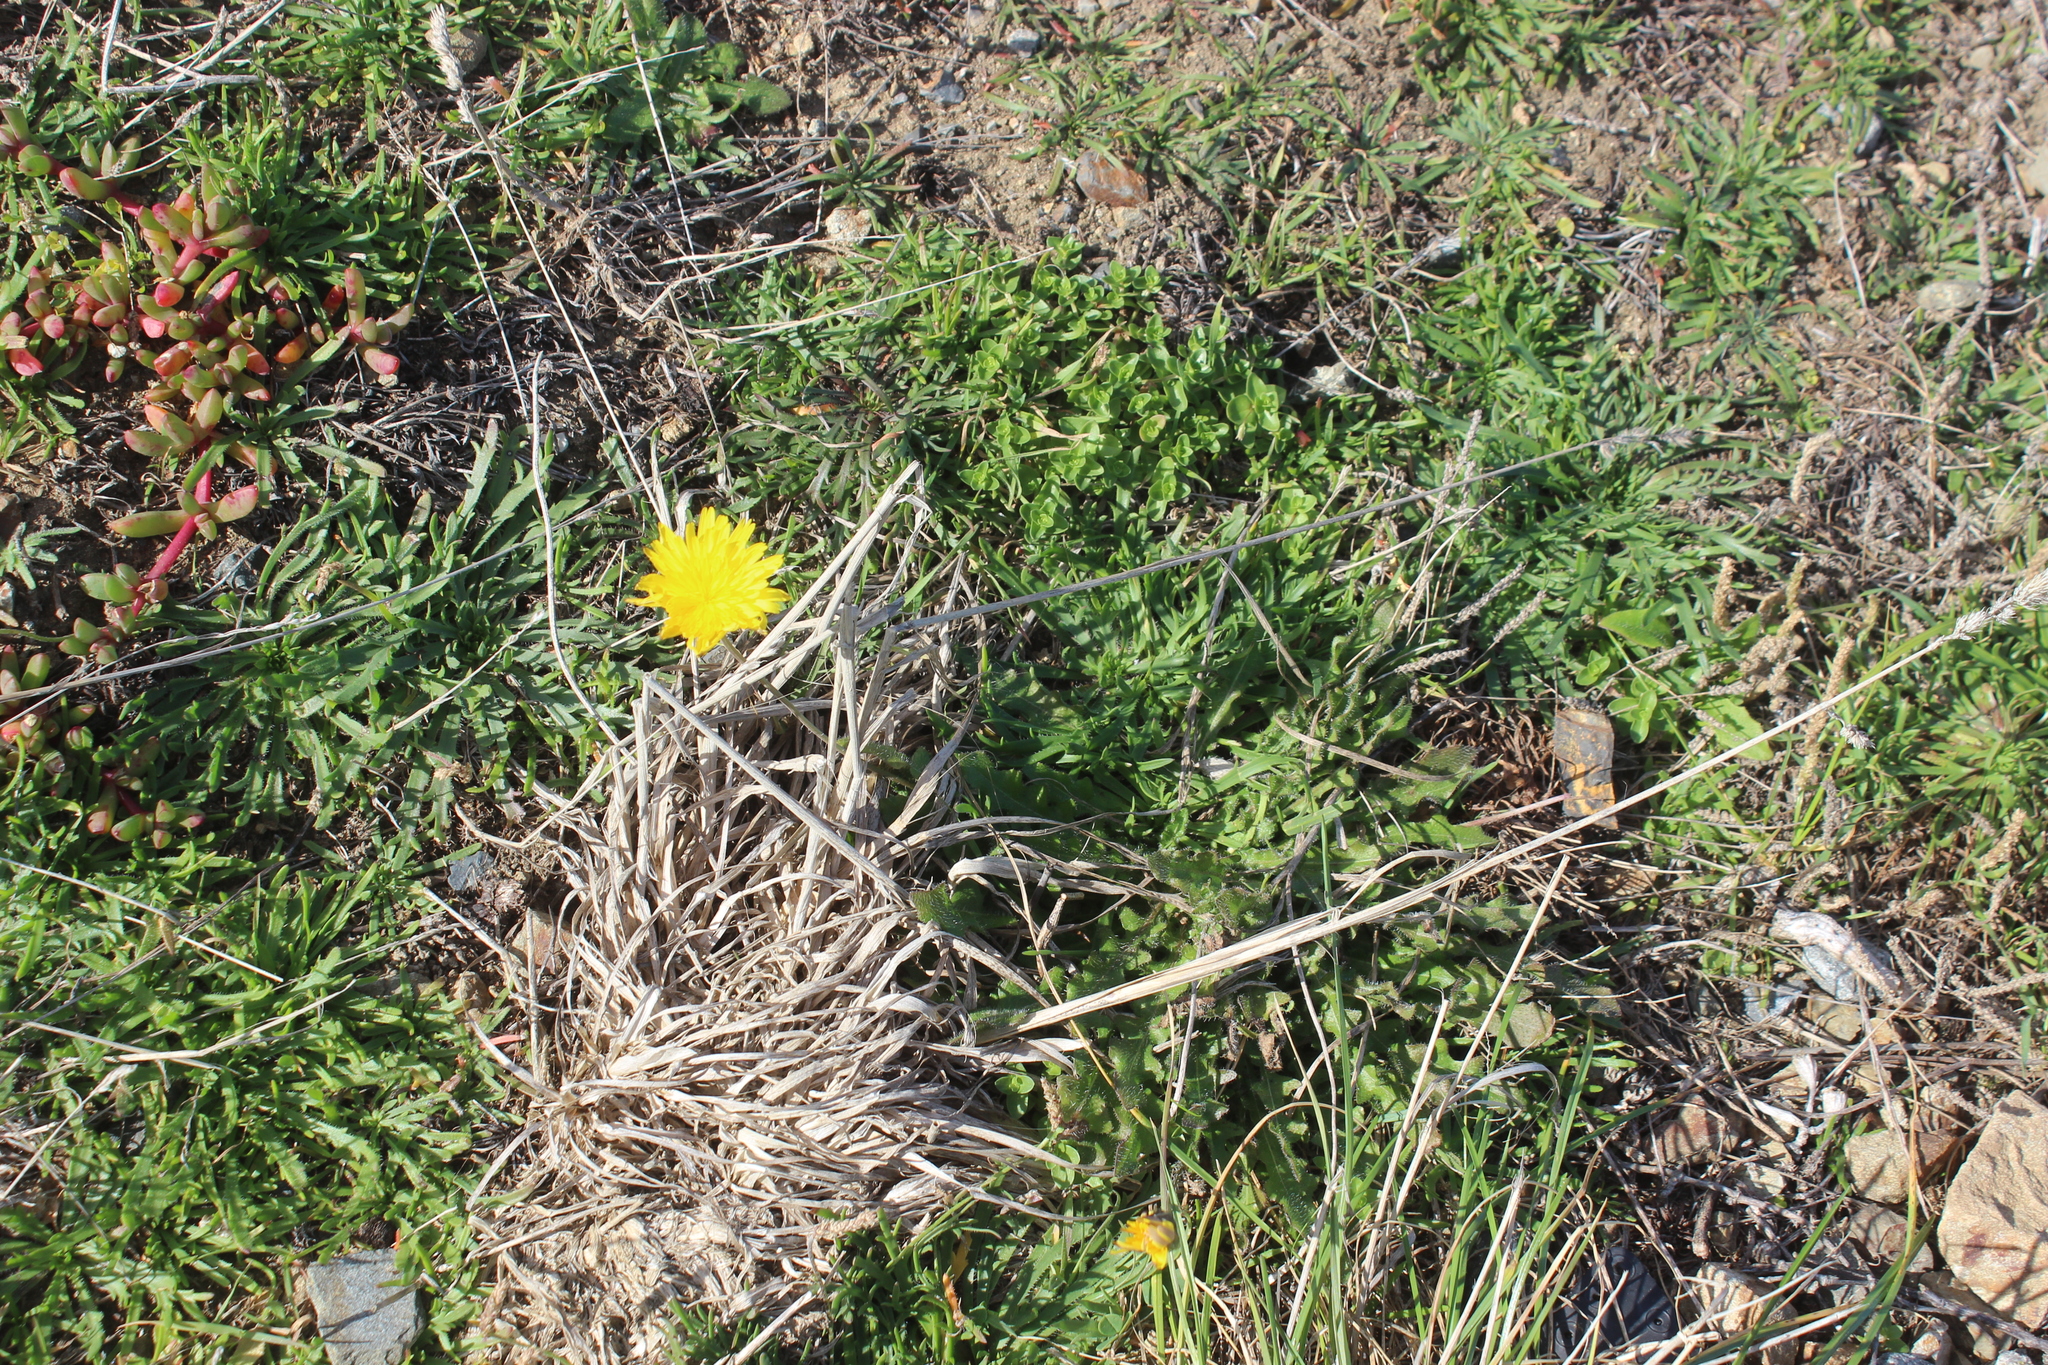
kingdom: Plantae
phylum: Tracheophyta
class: Magnoliopsida
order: Asterales
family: Asteraceae
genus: Hypochaeris
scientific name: Hypochaeris radicata
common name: Flatweed
